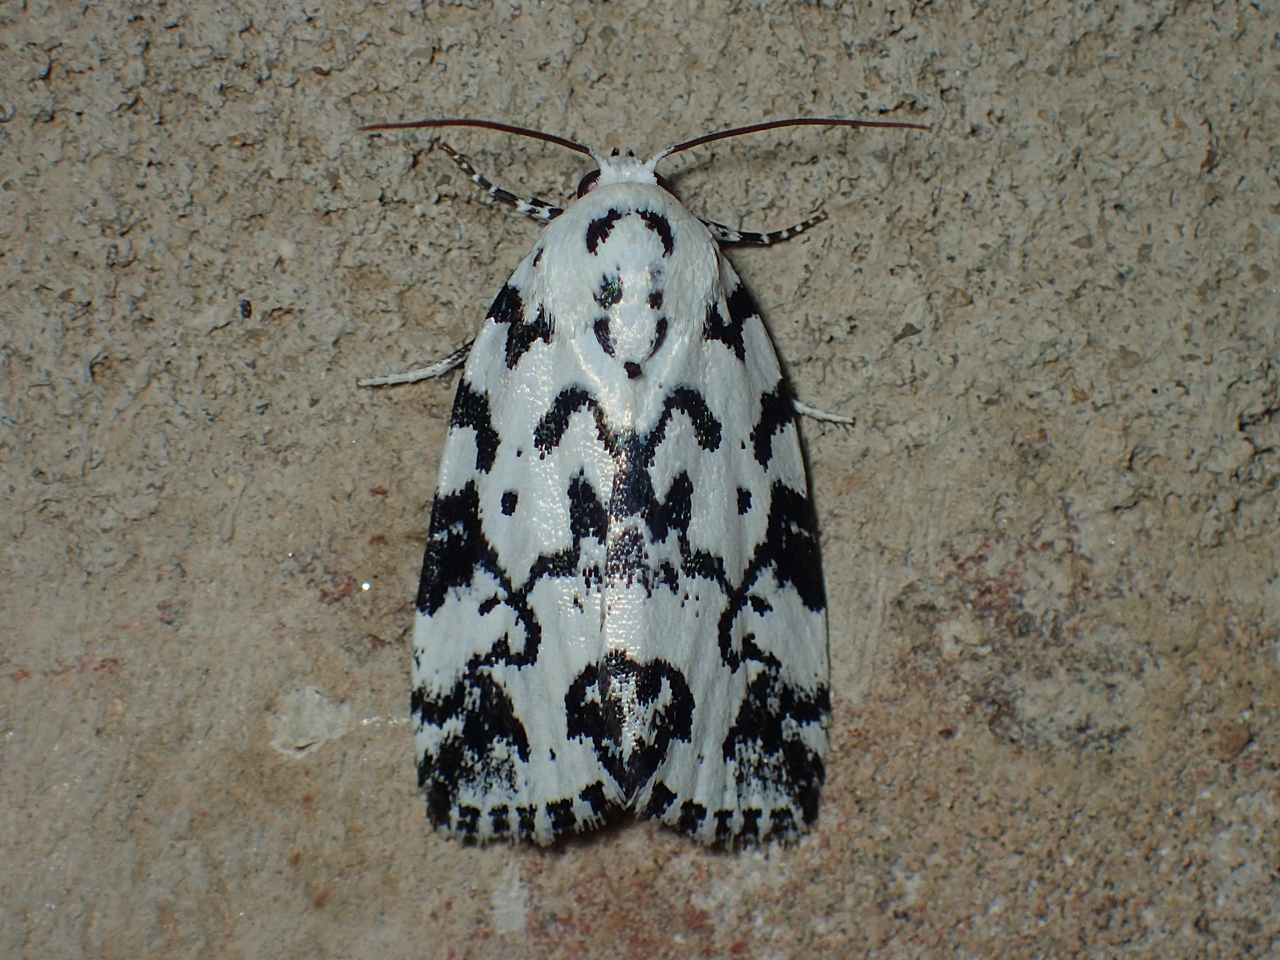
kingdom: Animalia
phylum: Arthropoda
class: Insecta
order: Lepidoptera
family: Noctuidae
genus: Polygrammate
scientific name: Polygrammate hebraeicum
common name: Hebrew moth
